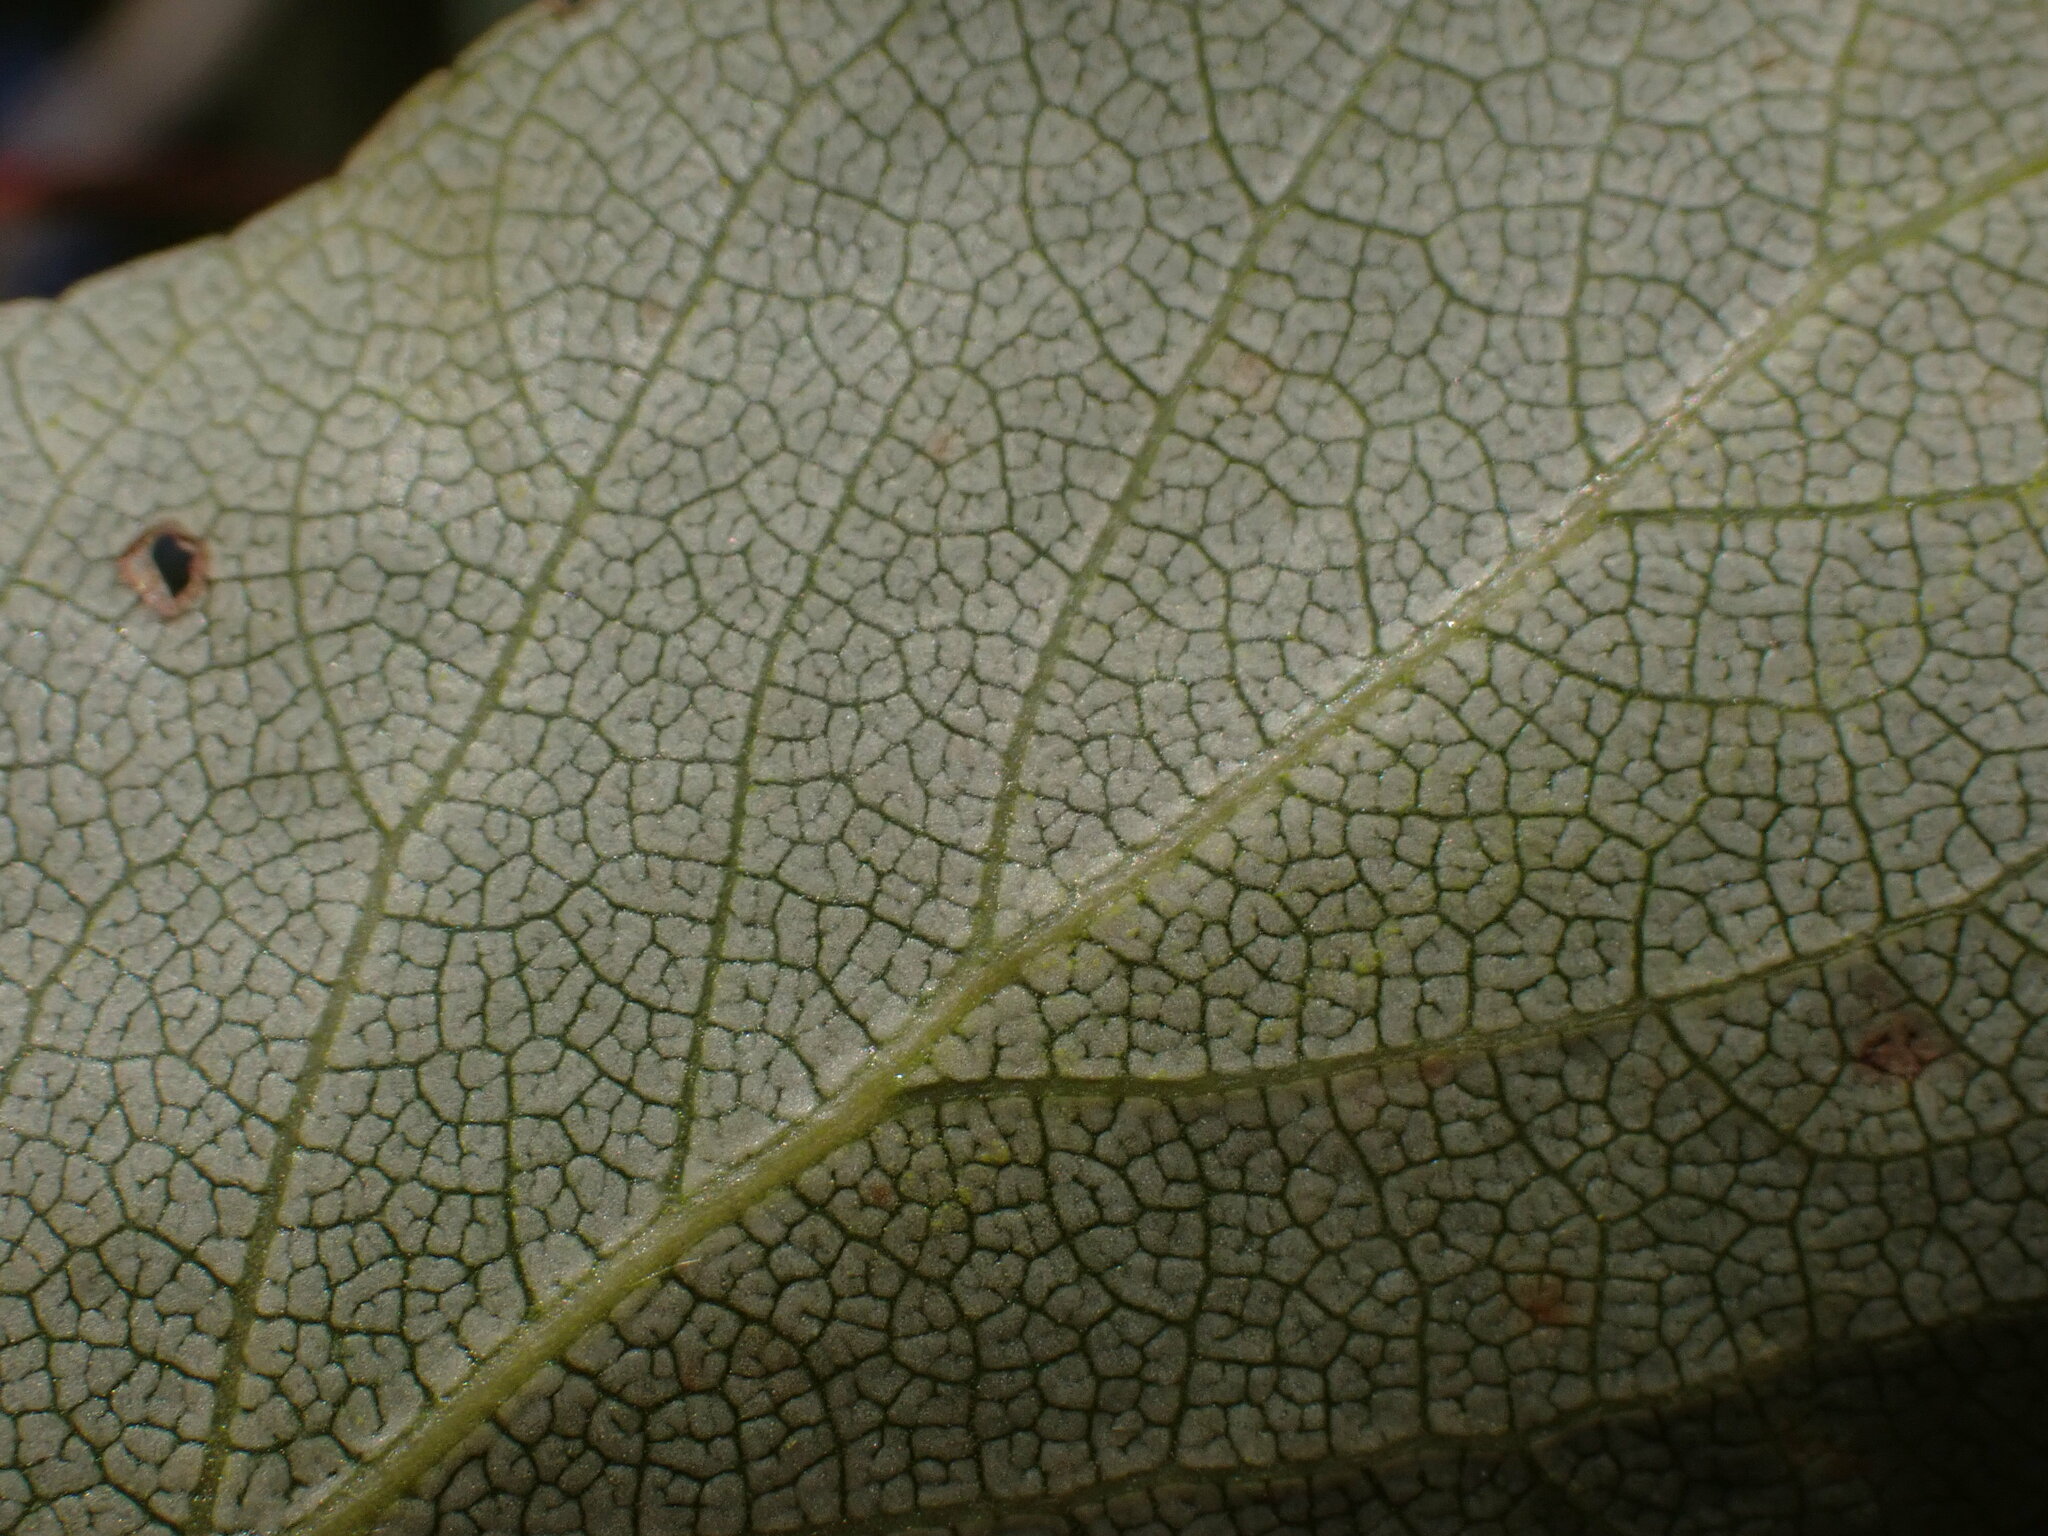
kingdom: Plantae
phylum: Tracheophyta
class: Magnoliopsida
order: Malpighiales
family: Salicaceae
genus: Populus
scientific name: Populus balsamifera
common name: Balsam poplar
